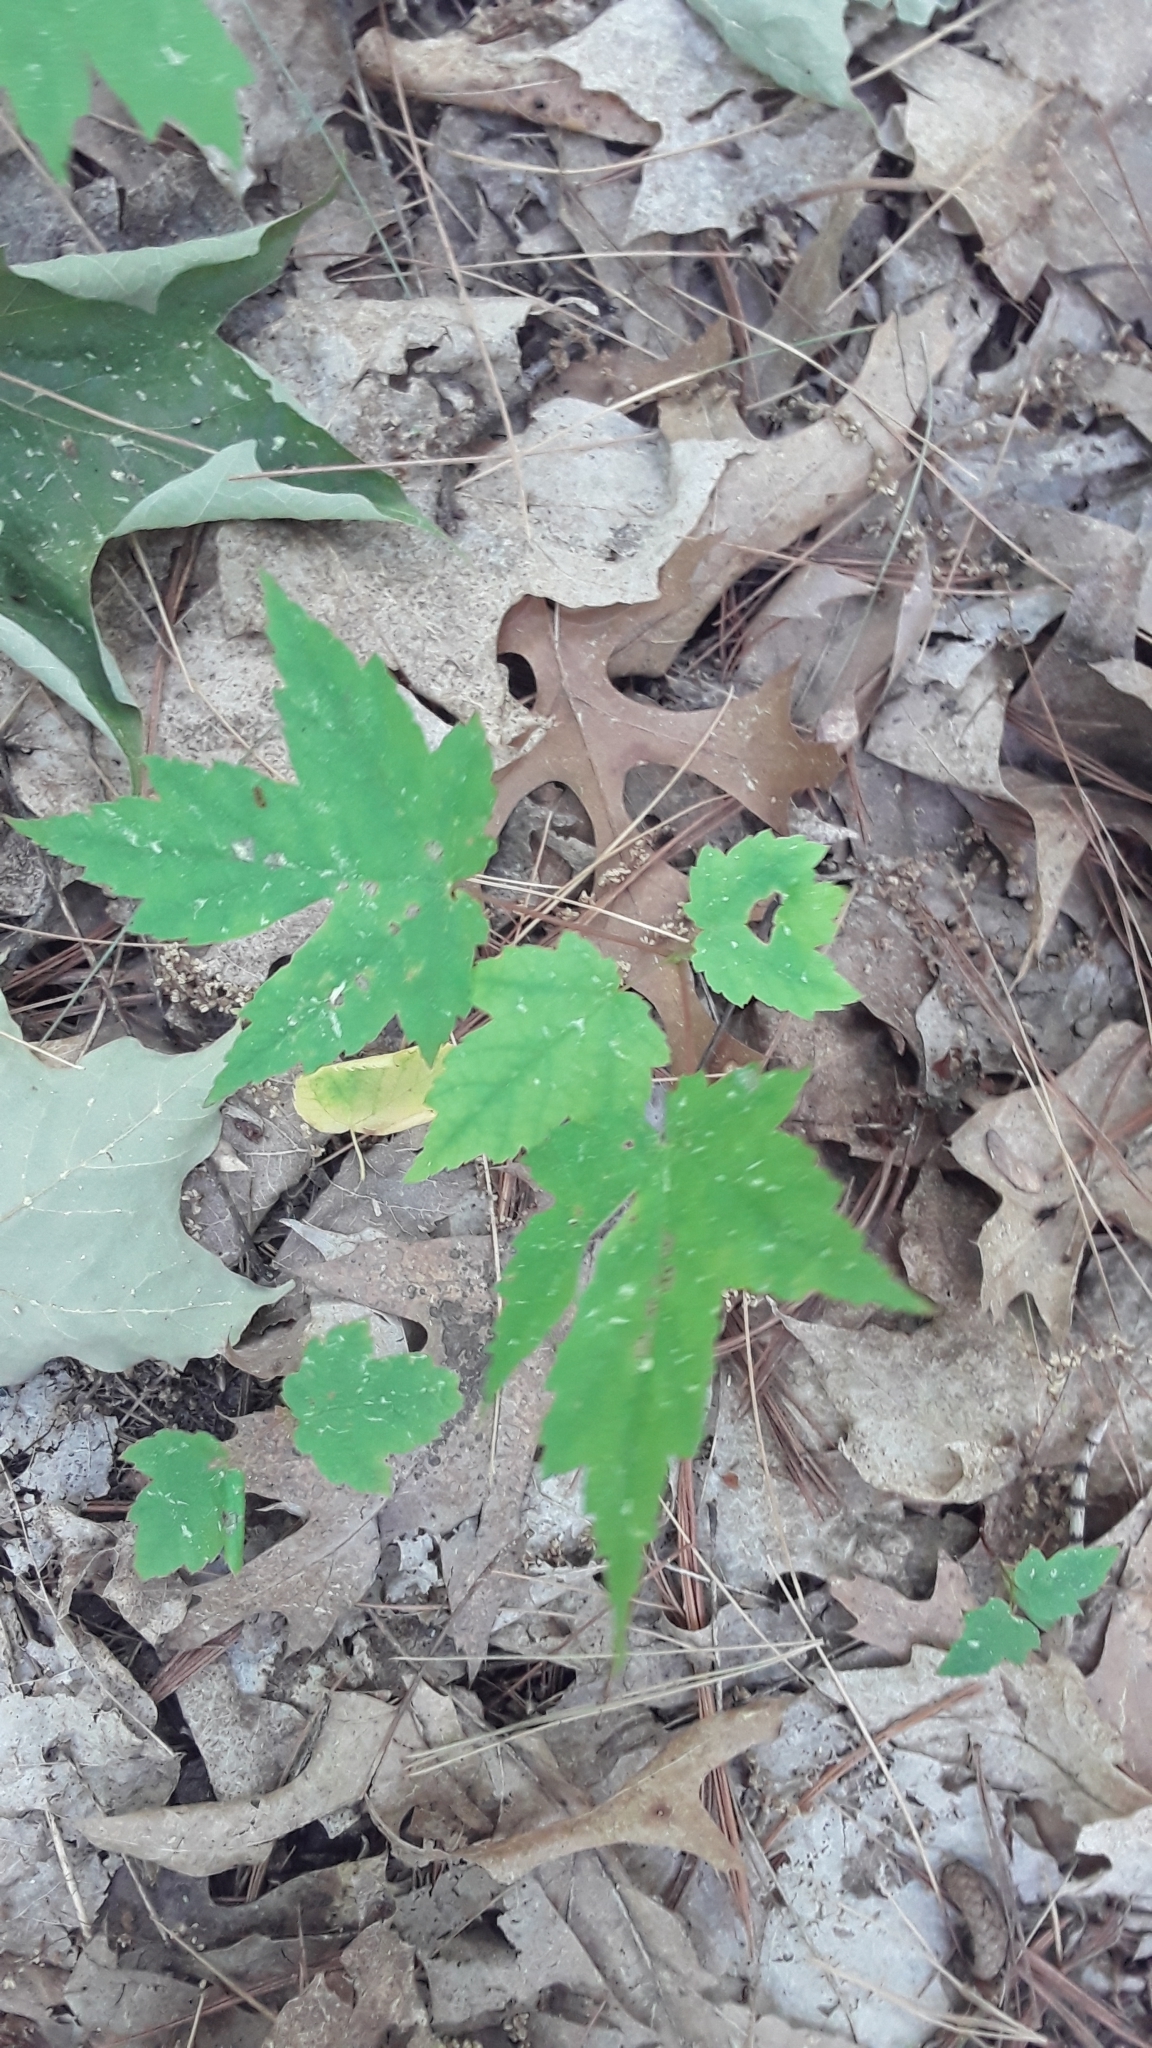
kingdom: Plantae
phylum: Tracheophyta
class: Magnoliopsida
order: Sapindales
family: Sapindaceae
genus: Acer
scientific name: Acer rubrum
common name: Red maple
